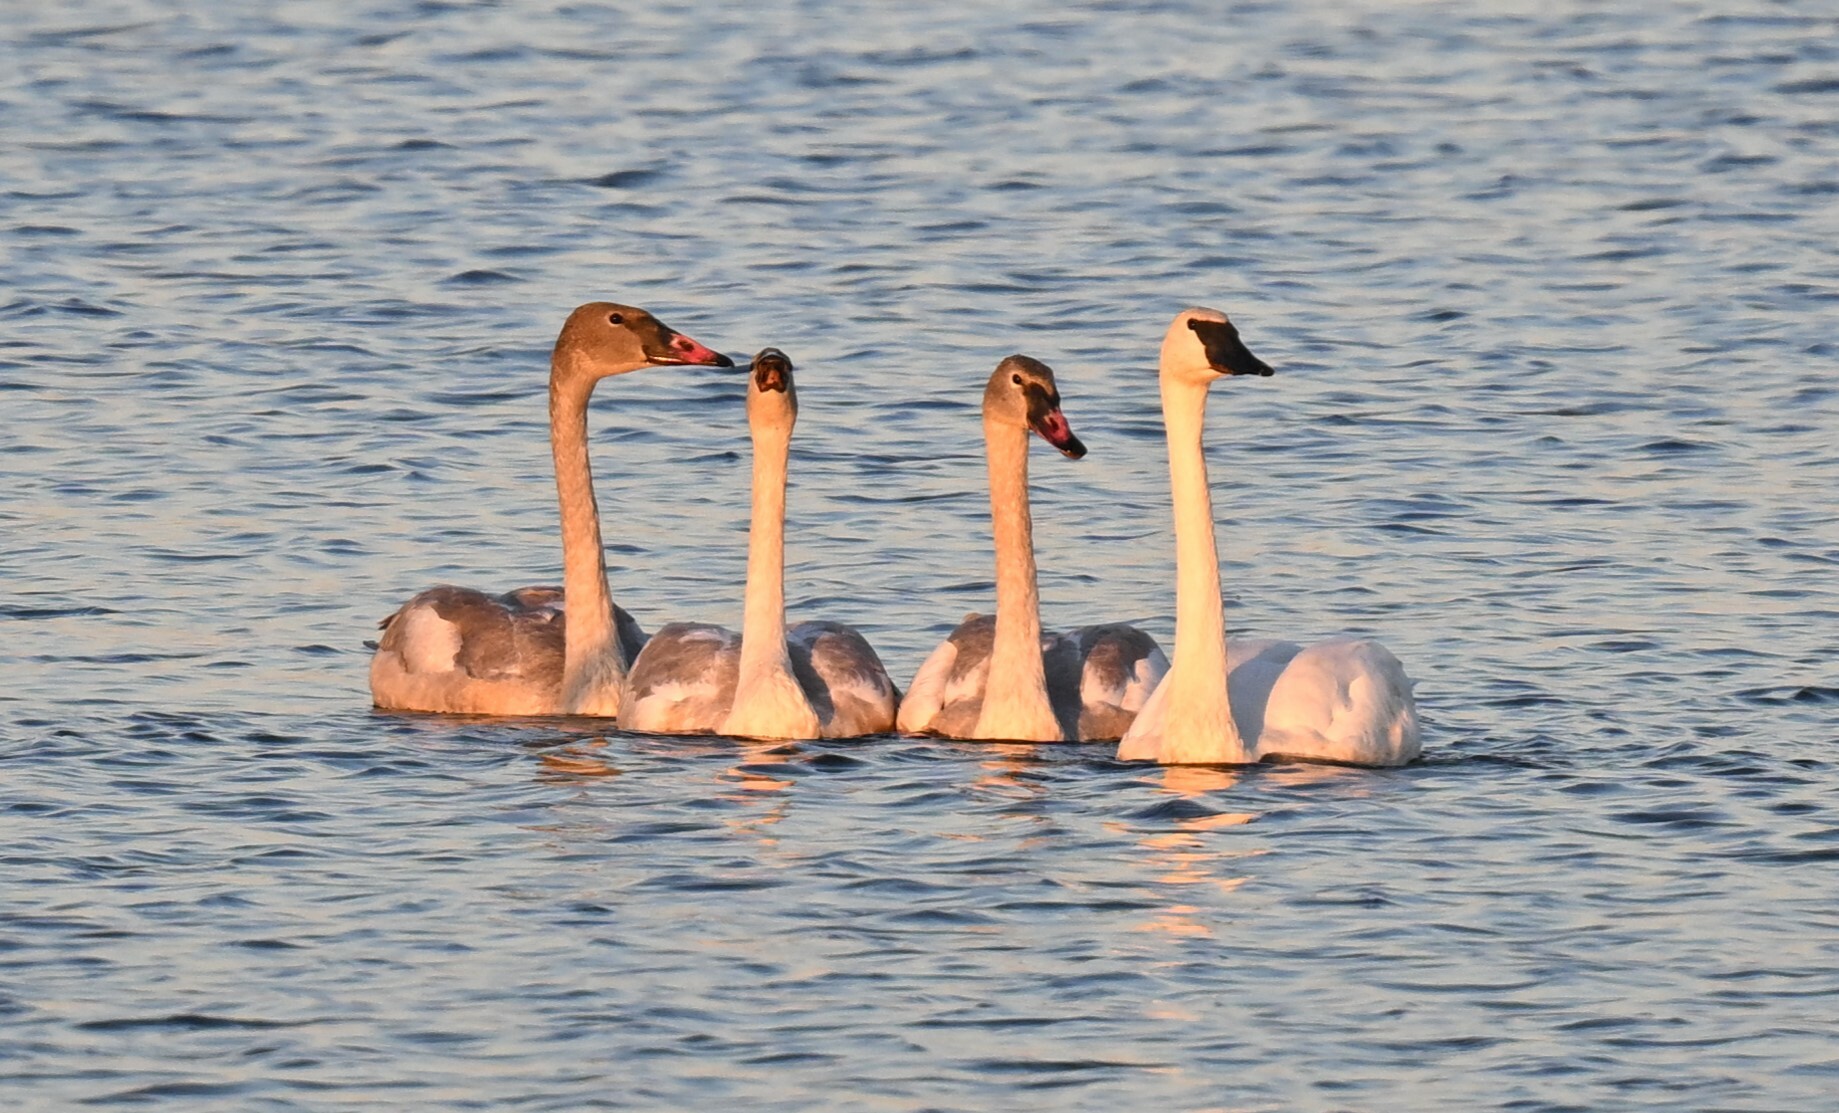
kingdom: Animalia
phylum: Chordata
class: Aves
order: Anseriformes
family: Anatidae
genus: Cygnus
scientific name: Cygnus buccinator
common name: Trumpeter swan
